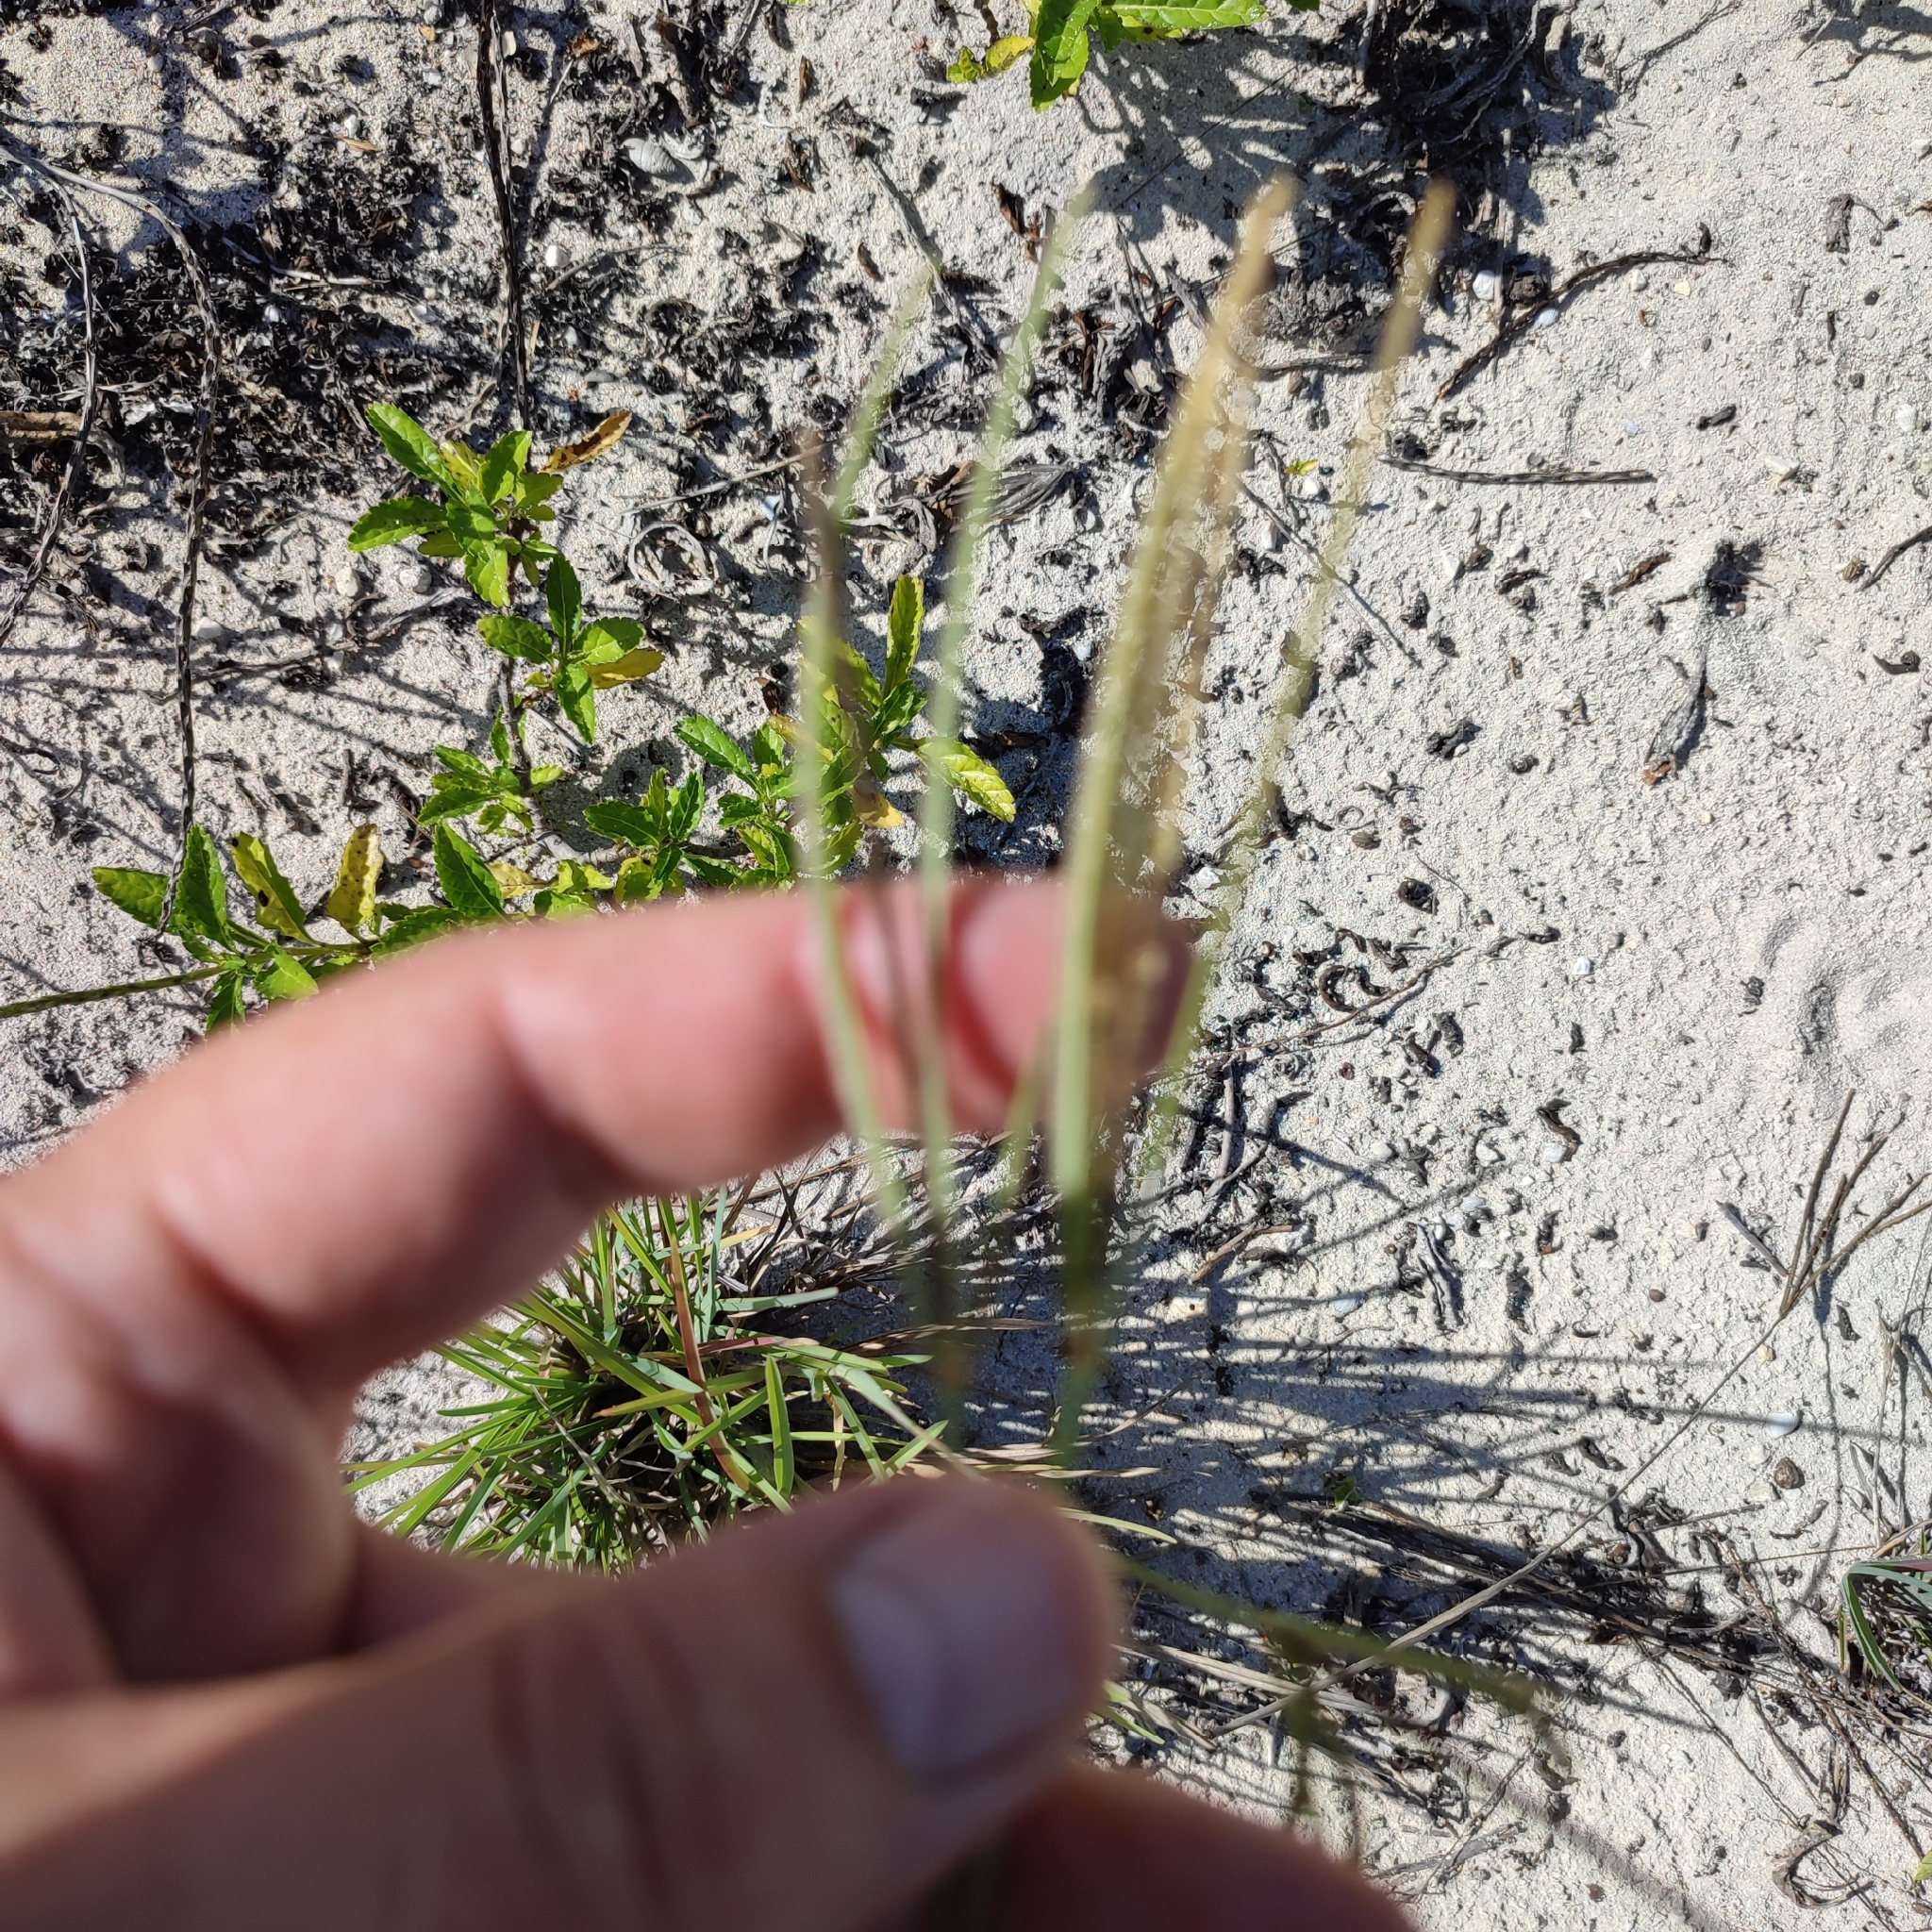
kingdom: Plantae
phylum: Tracheophyta
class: Liliopsida
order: Poales
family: Poaceae
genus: Eustachys
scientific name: Eustachys petraea
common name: Pinewoods fingergrass
